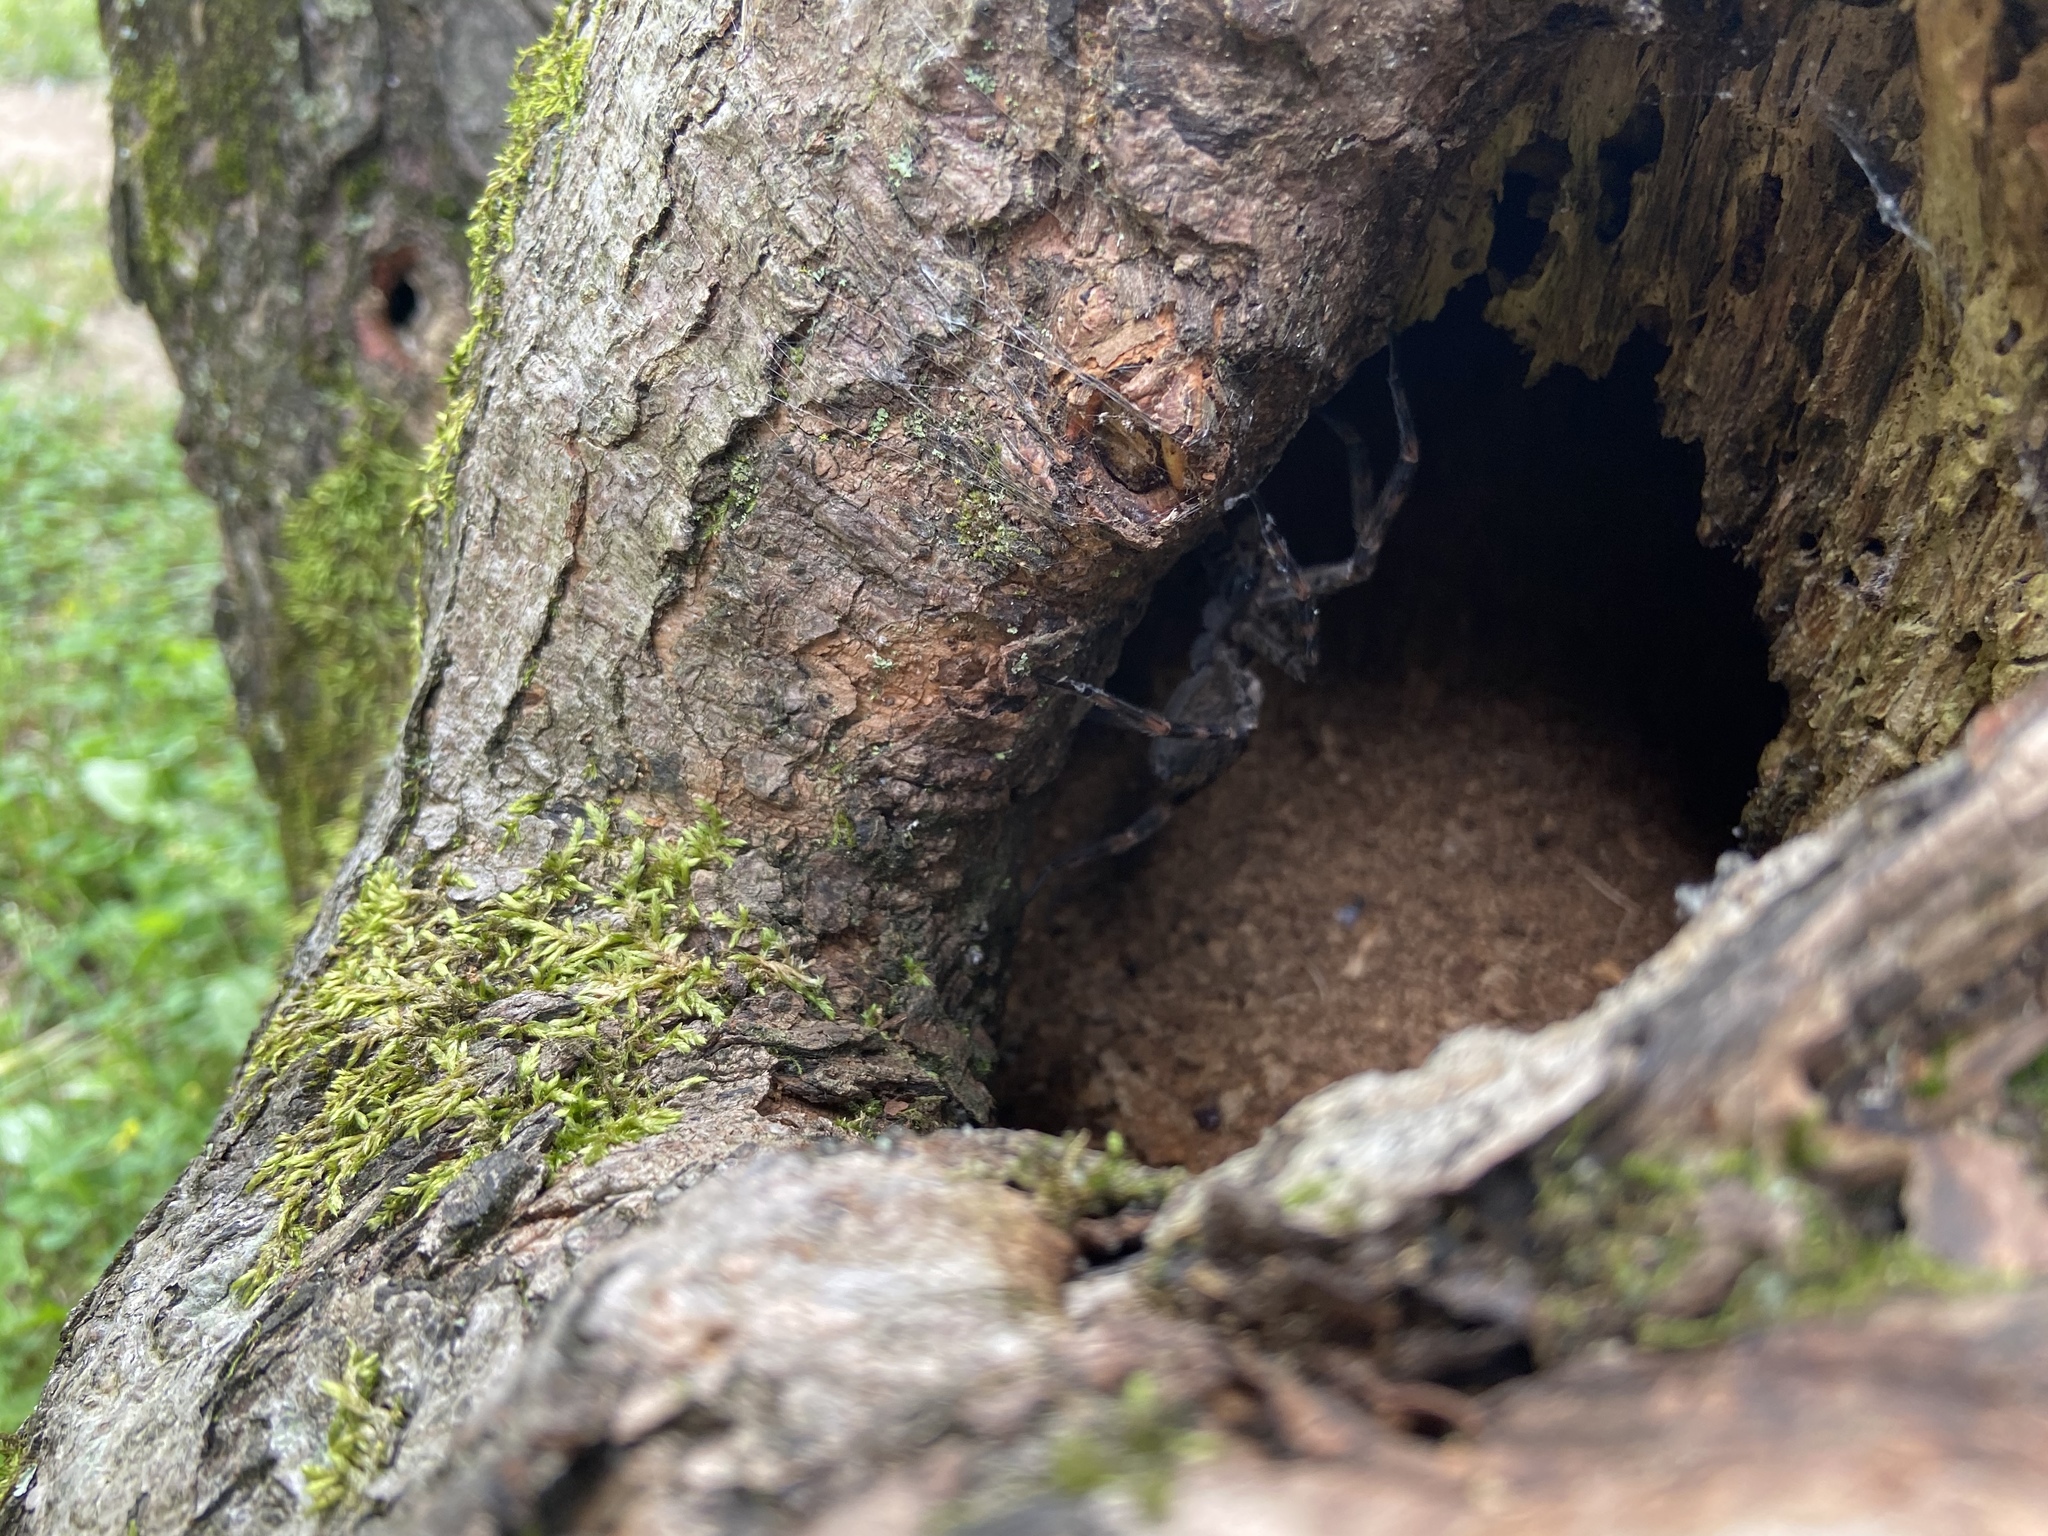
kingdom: Animalia
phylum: Arthropoda
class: Arachnida
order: Araneae
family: Pisauridae
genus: Dolomedes
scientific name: Dolomedes tenebrosus
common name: Dark fishing spider
